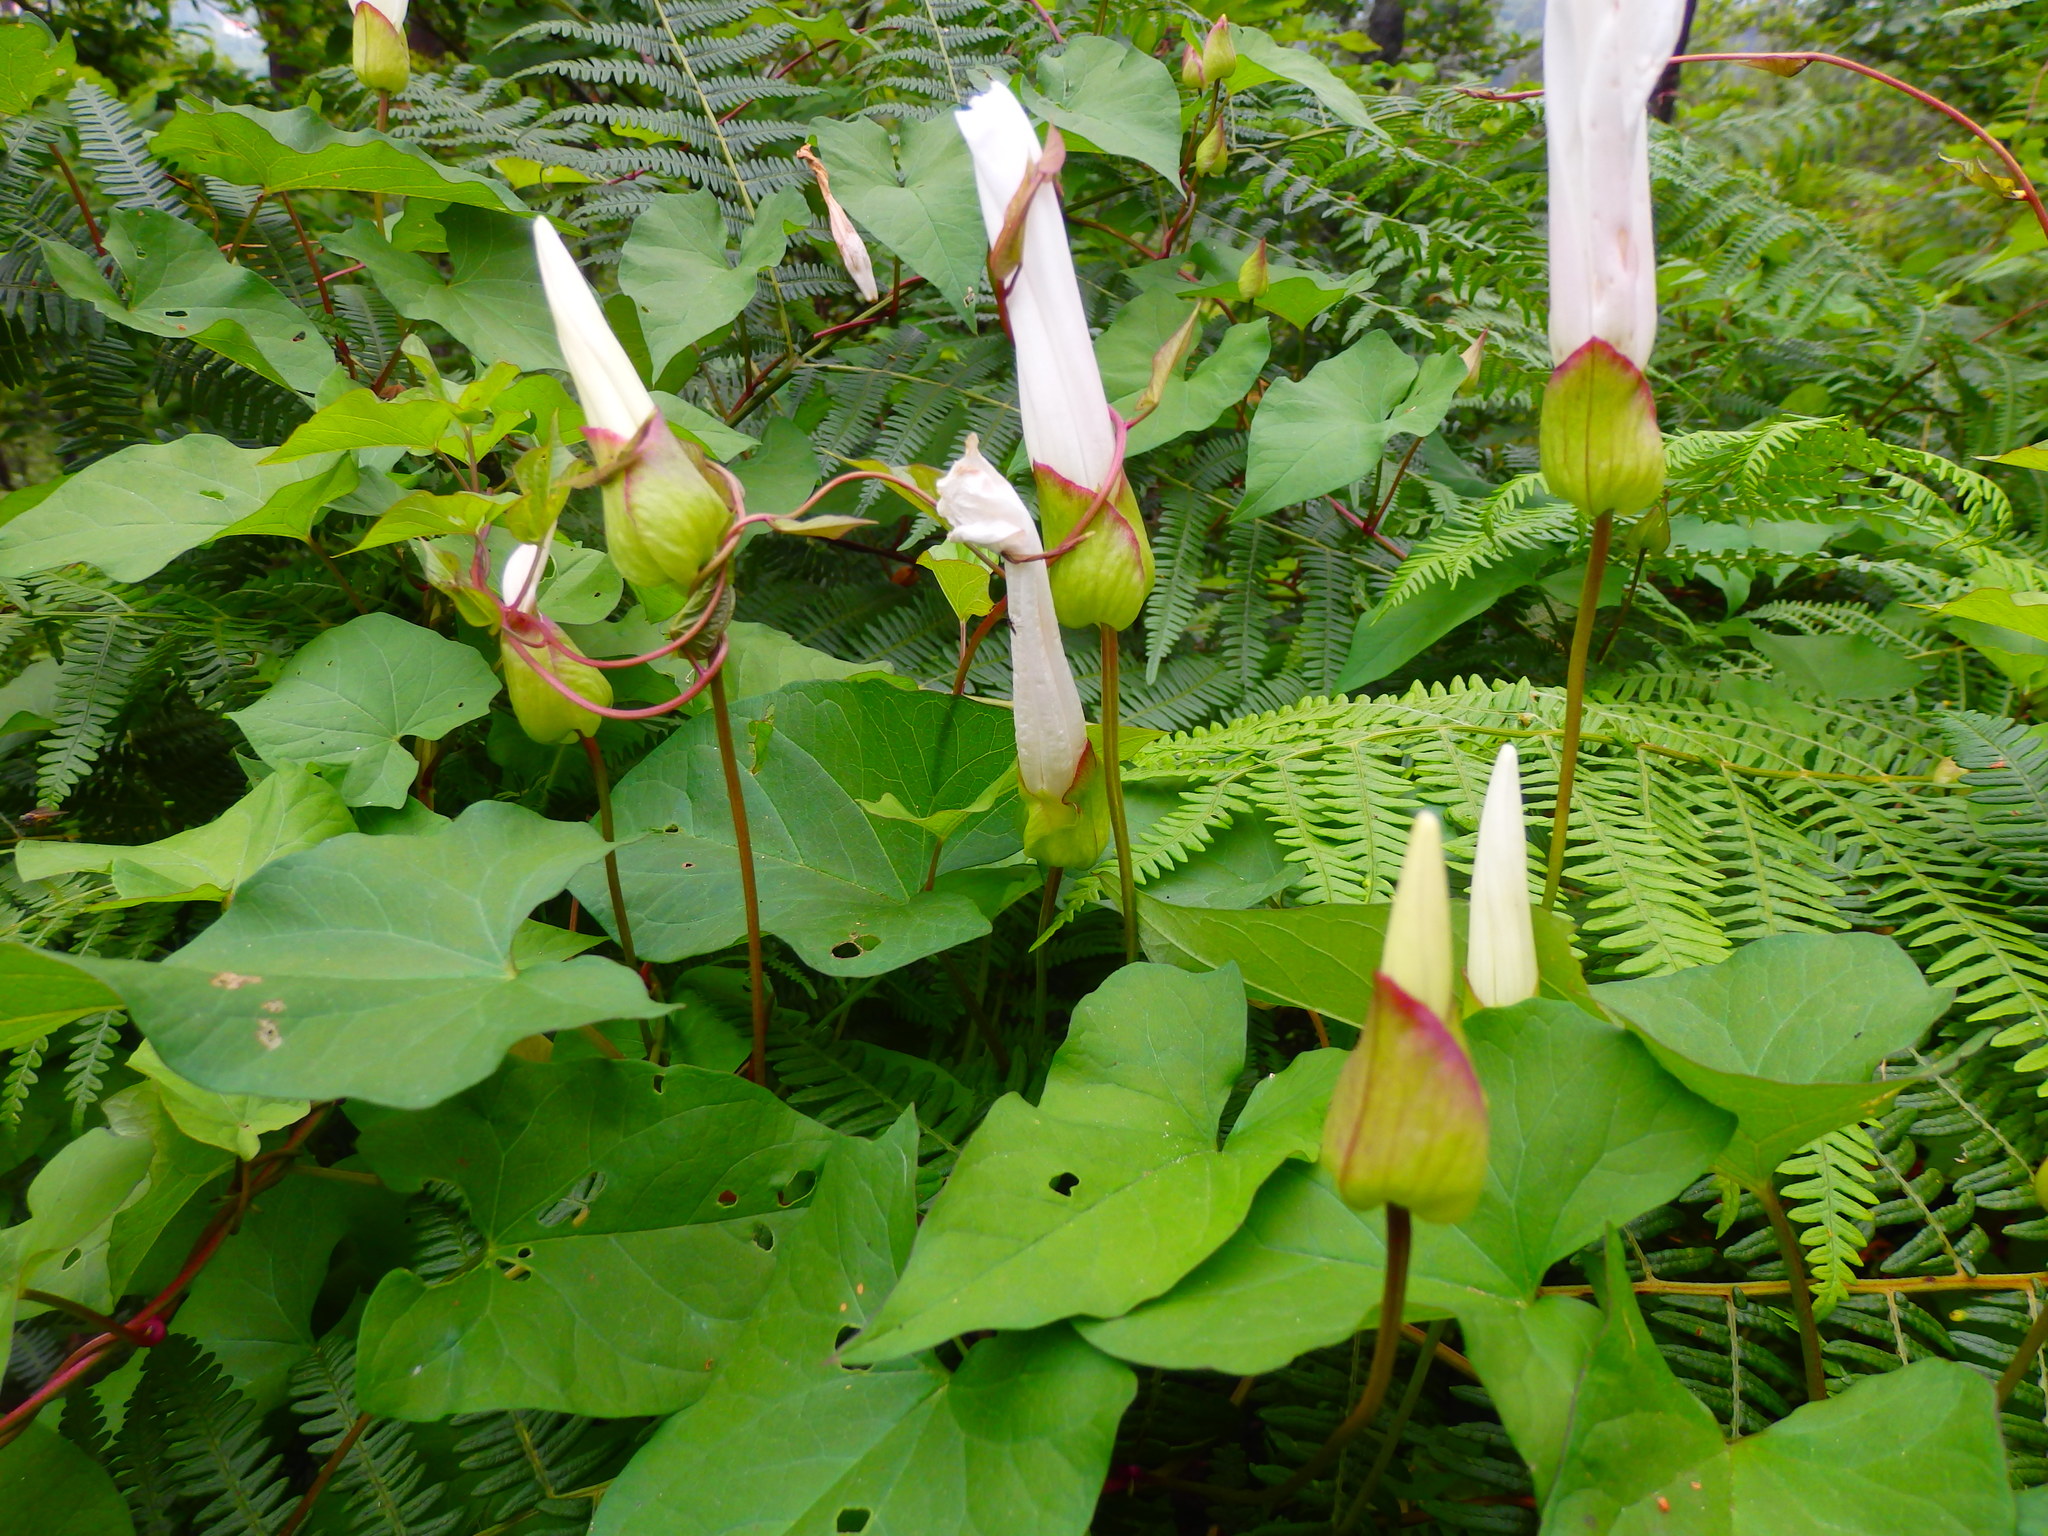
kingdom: Plantae
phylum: Tracheophyta
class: Magnoliopsida
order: Solanales
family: Convolvulaceae
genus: Calystegia
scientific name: Calystegia silvatica
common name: Large bindweed
